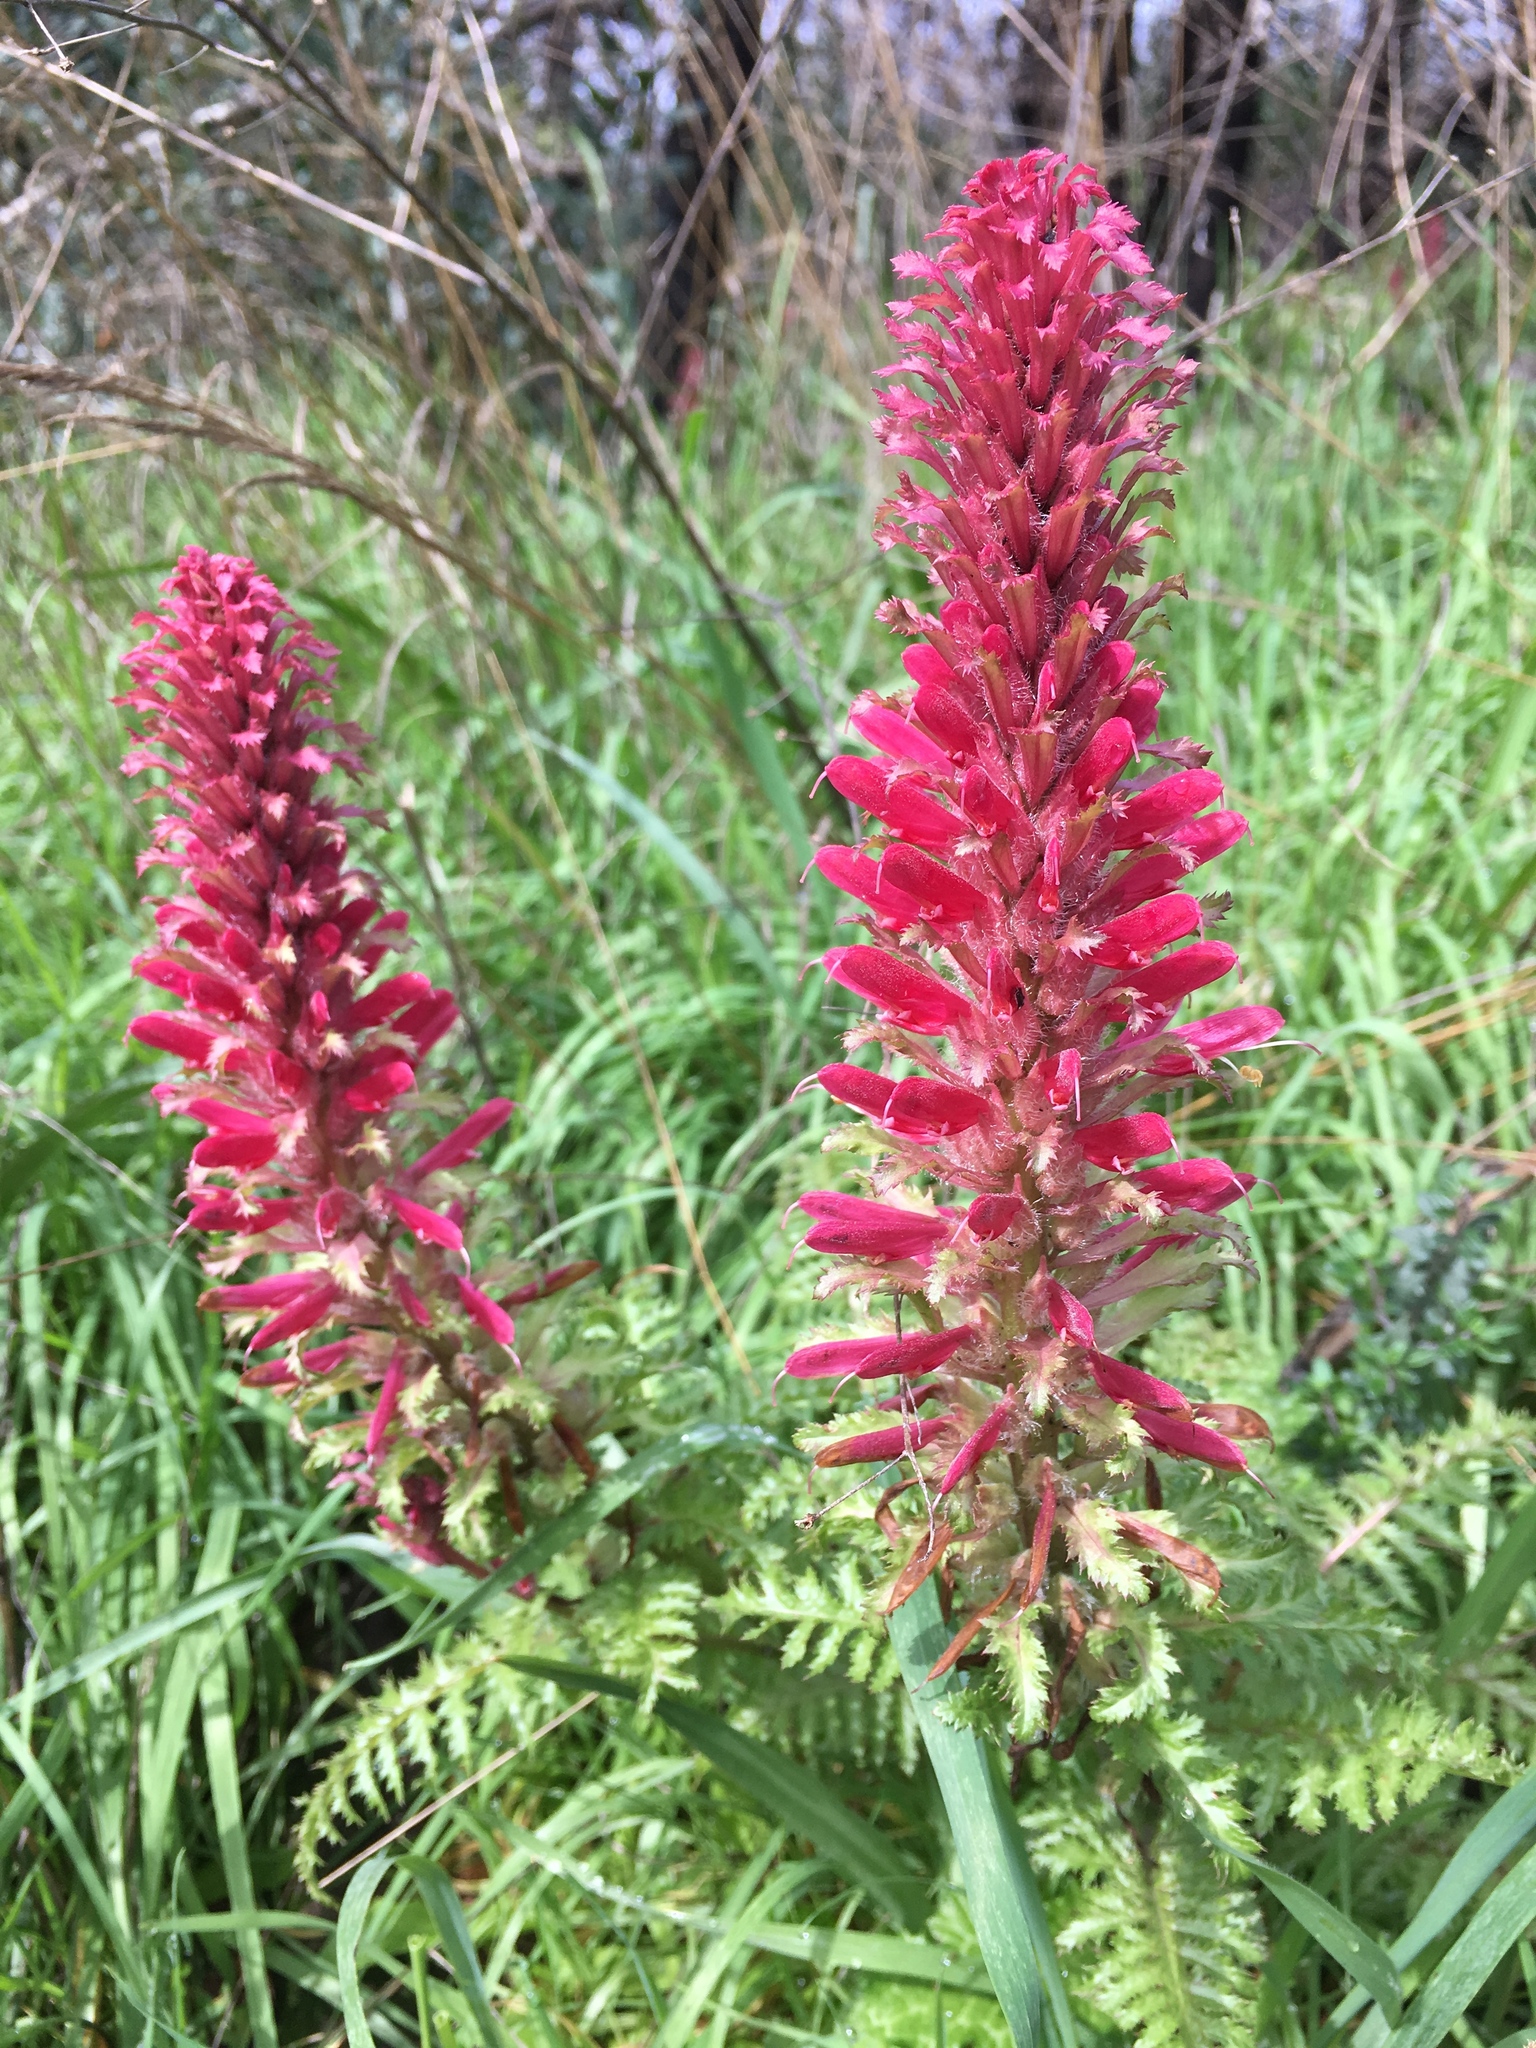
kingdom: Plantae
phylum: Tracheophyta
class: Magnoliopsida
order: Lamiales
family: Orobanchaceae
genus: Pedicularis
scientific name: Pedicularis densiflora
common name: Indian warrior
